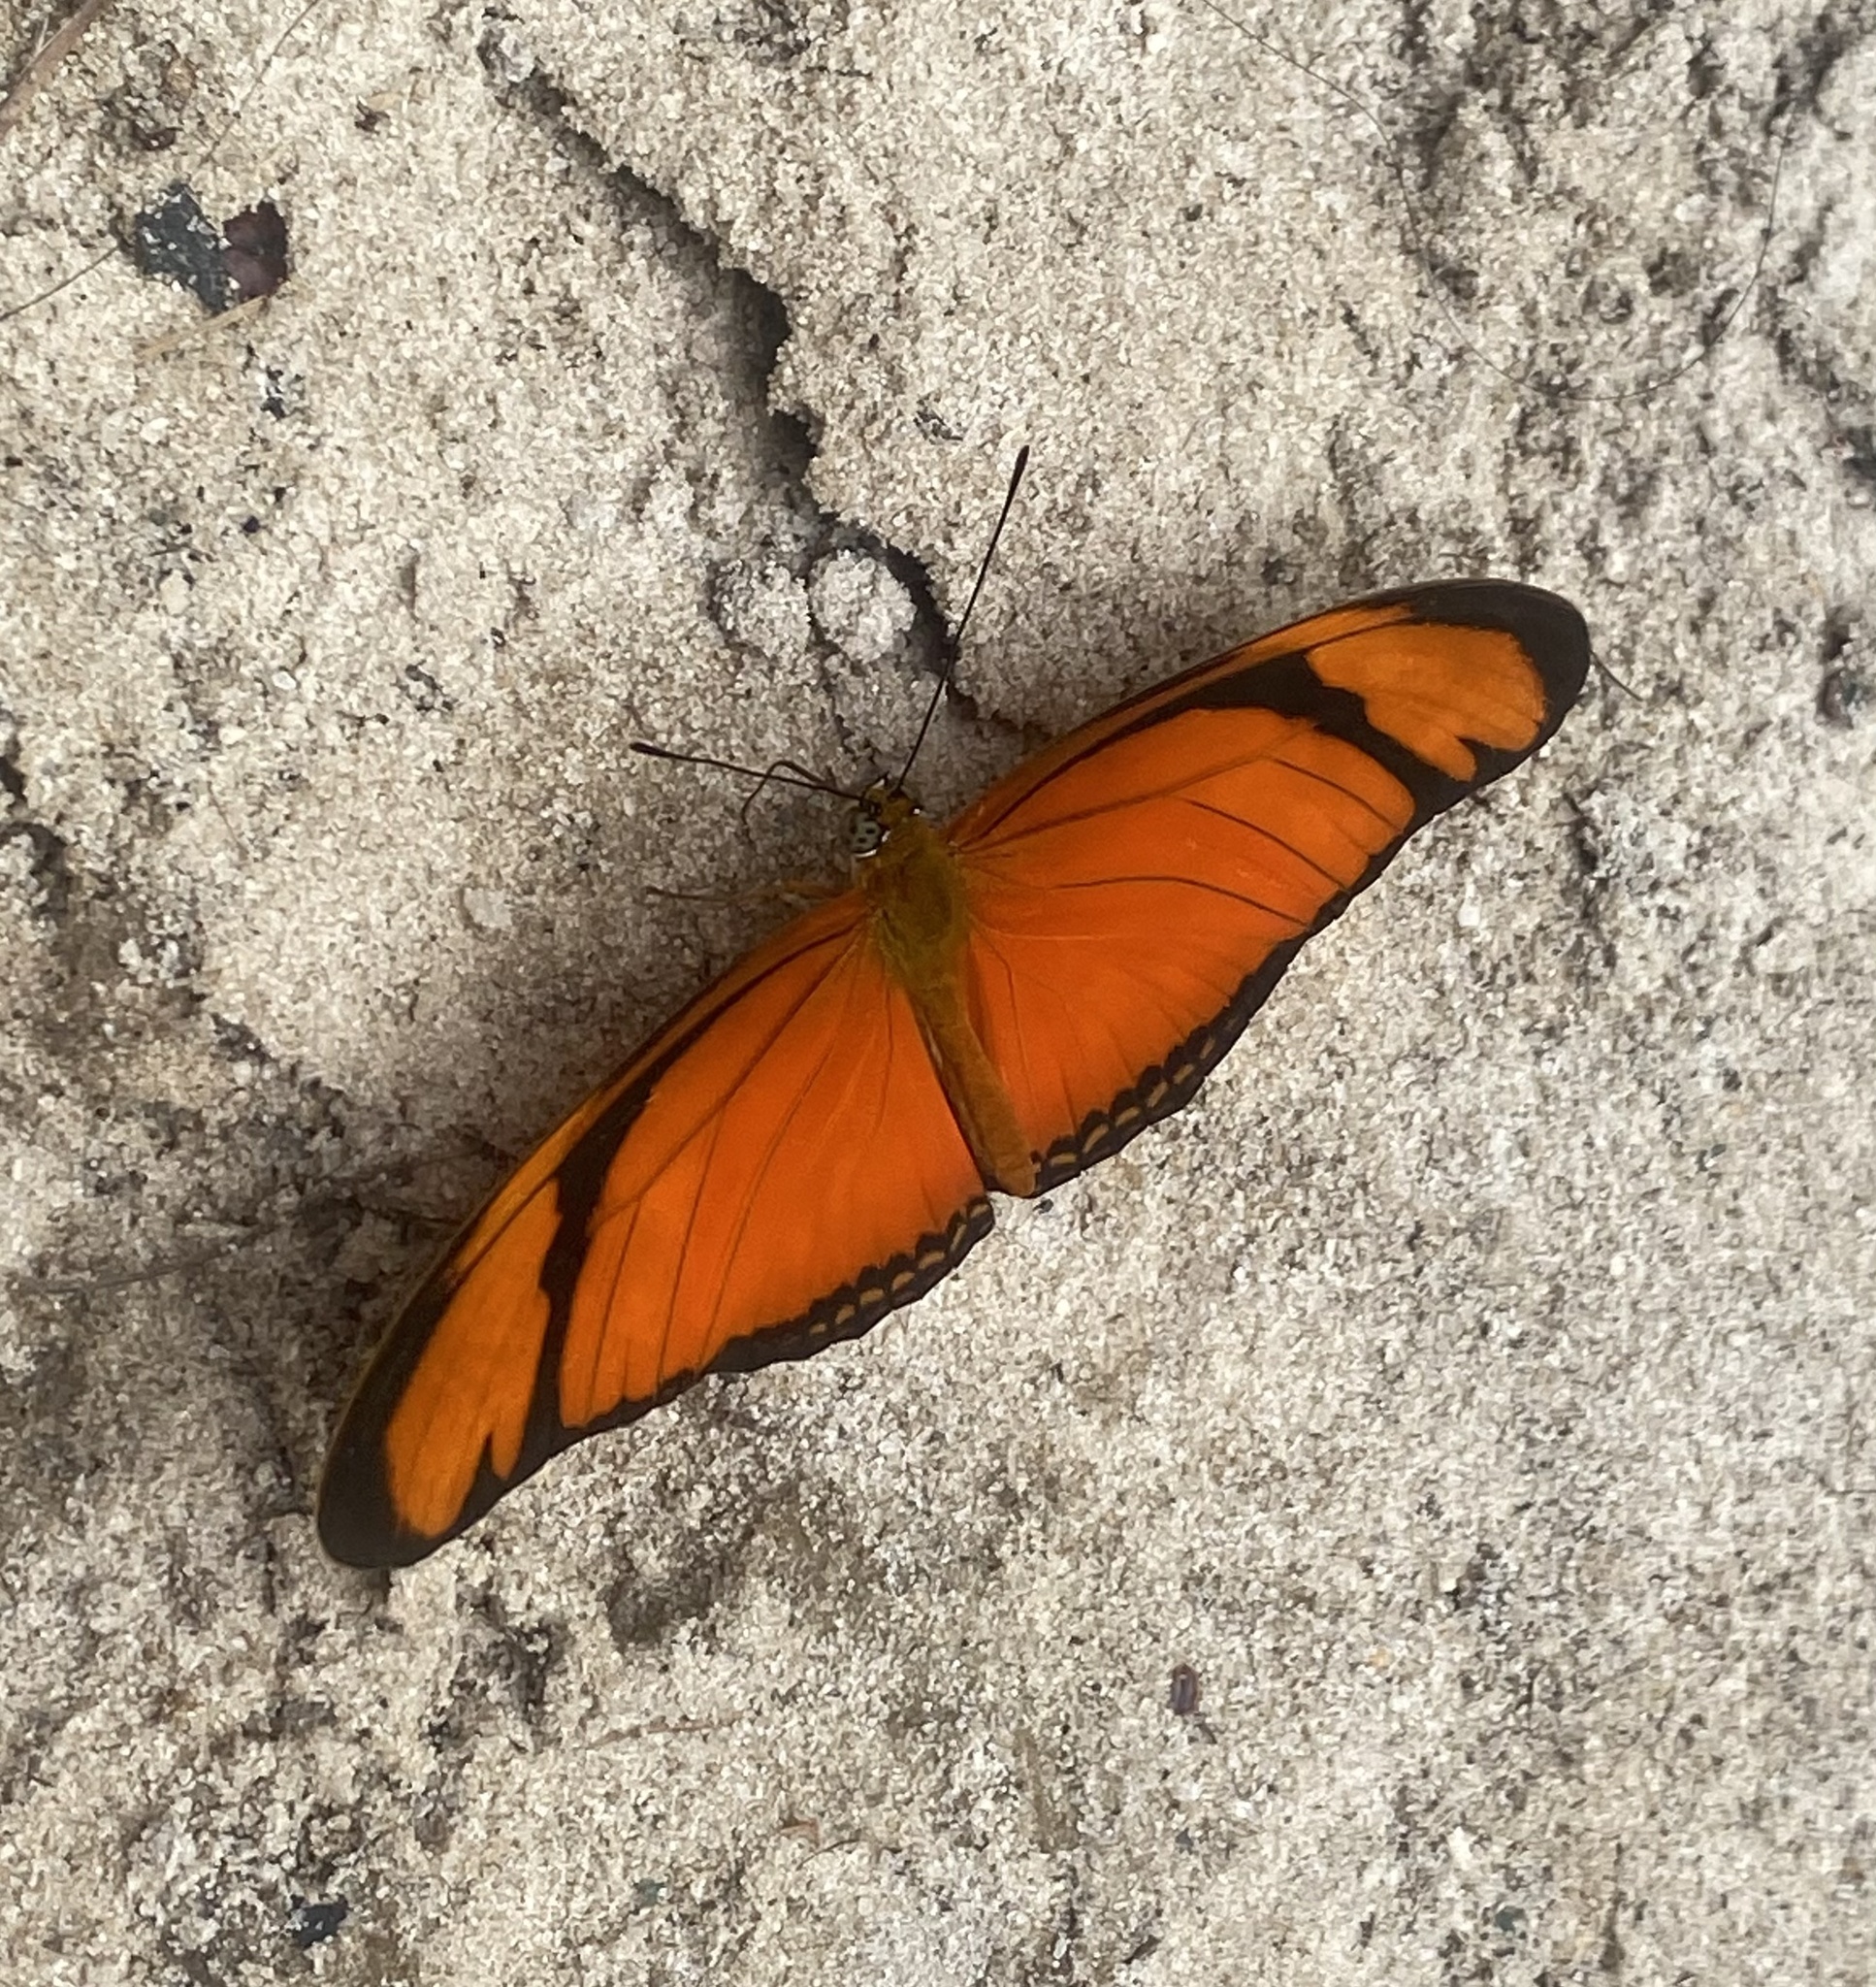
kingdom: Animalia
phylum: Arthropoda
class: Insecta
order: Lepidoptera
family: Nymphalidae
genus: Dryas
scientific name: Dryas iulia
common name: Flambeau
